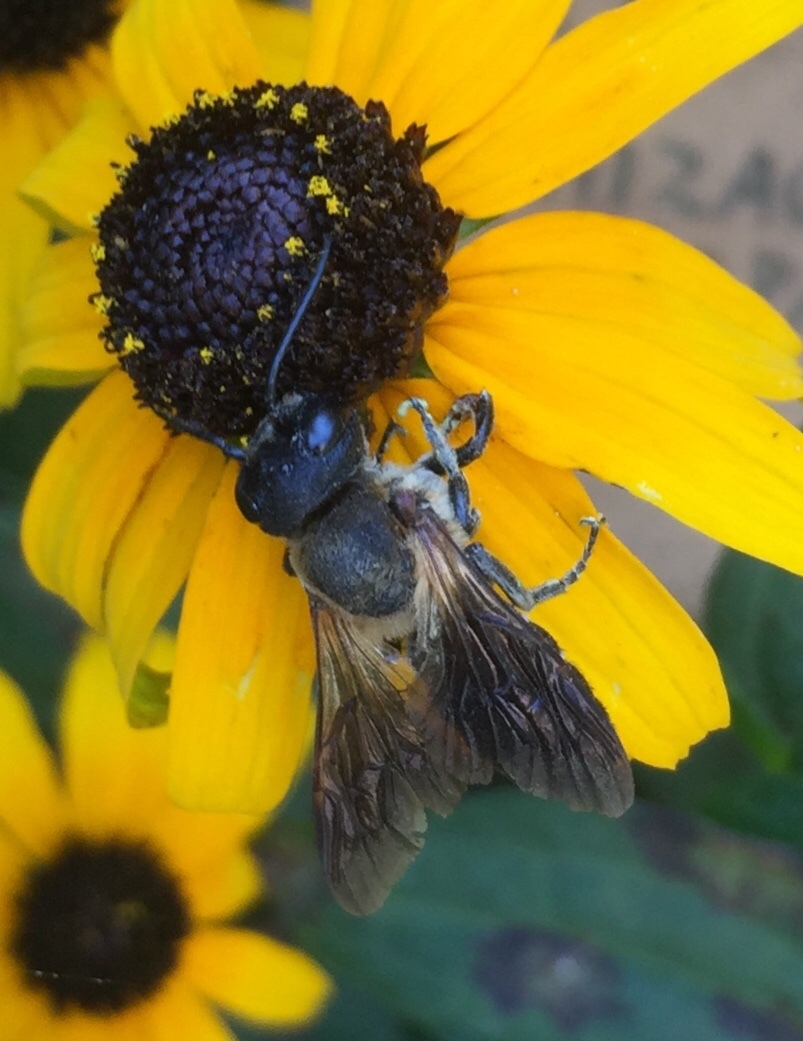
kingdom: Animalia
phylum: Arthropoda
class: Insecta
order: Hymenoptera
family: Megachilidae
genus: Megachile
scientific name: Megachile sculpturalis
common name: Sculptured resin bee
